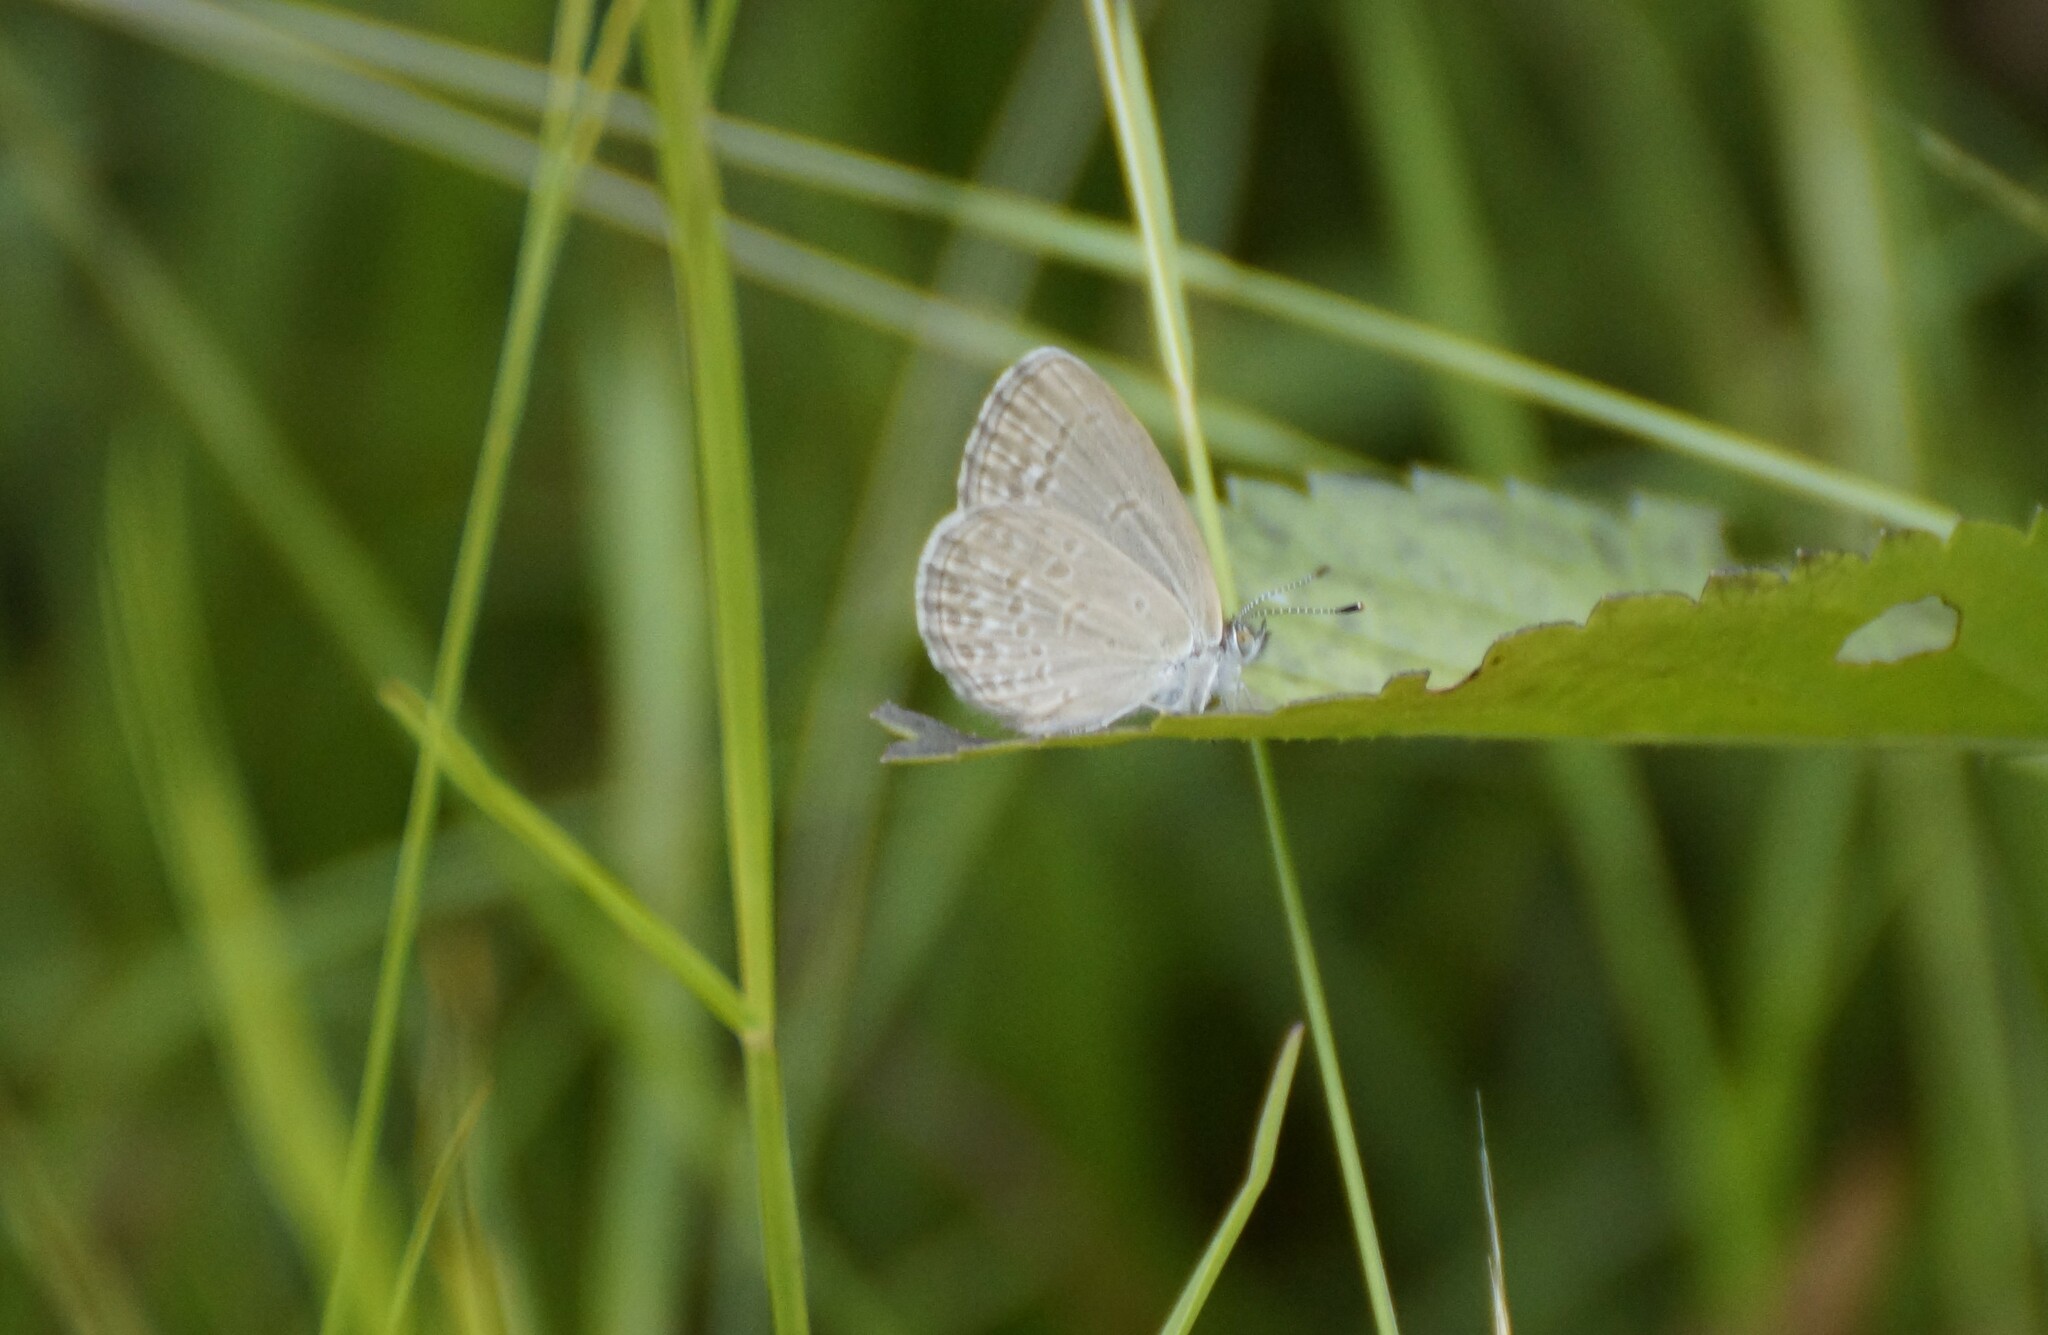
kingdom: Animalia
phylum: Arthropoda
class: Insecta
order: Lepidoptera
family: Lycaenidae
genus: Zizina
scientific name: Zizina otis
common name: Lesser grass blue
